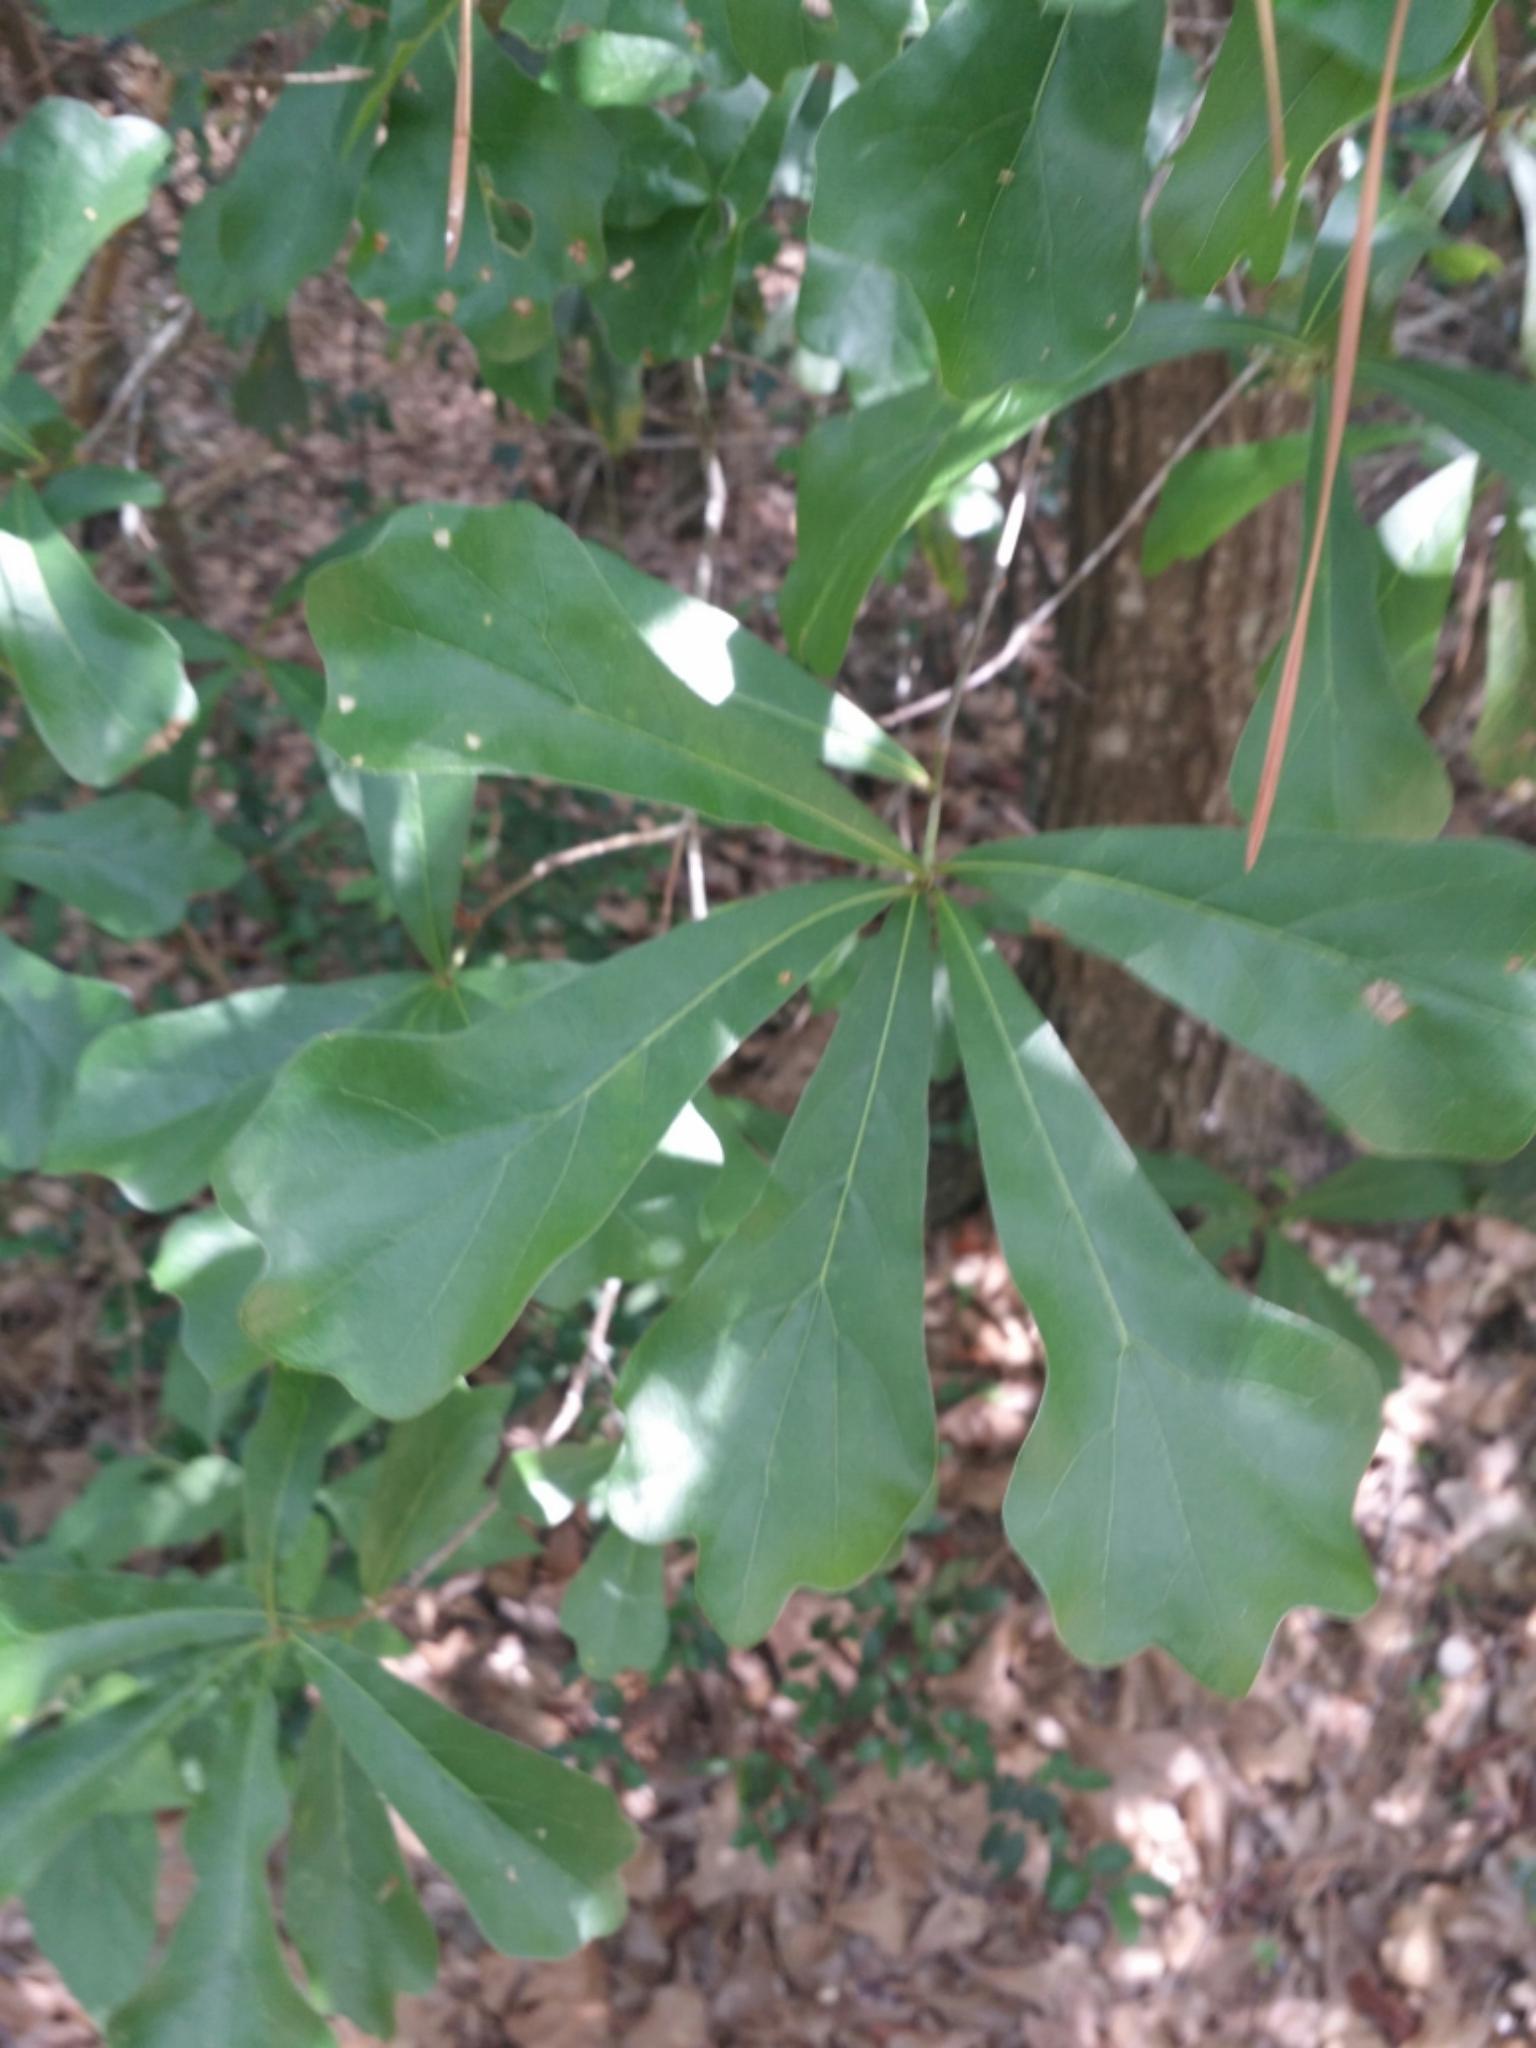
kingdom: Plantae
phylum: Tracheophyta
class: Magnoliopsida
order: Fagales
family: Fagaceae
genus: Quercus
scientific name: Quercus nigra
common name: Water oak
